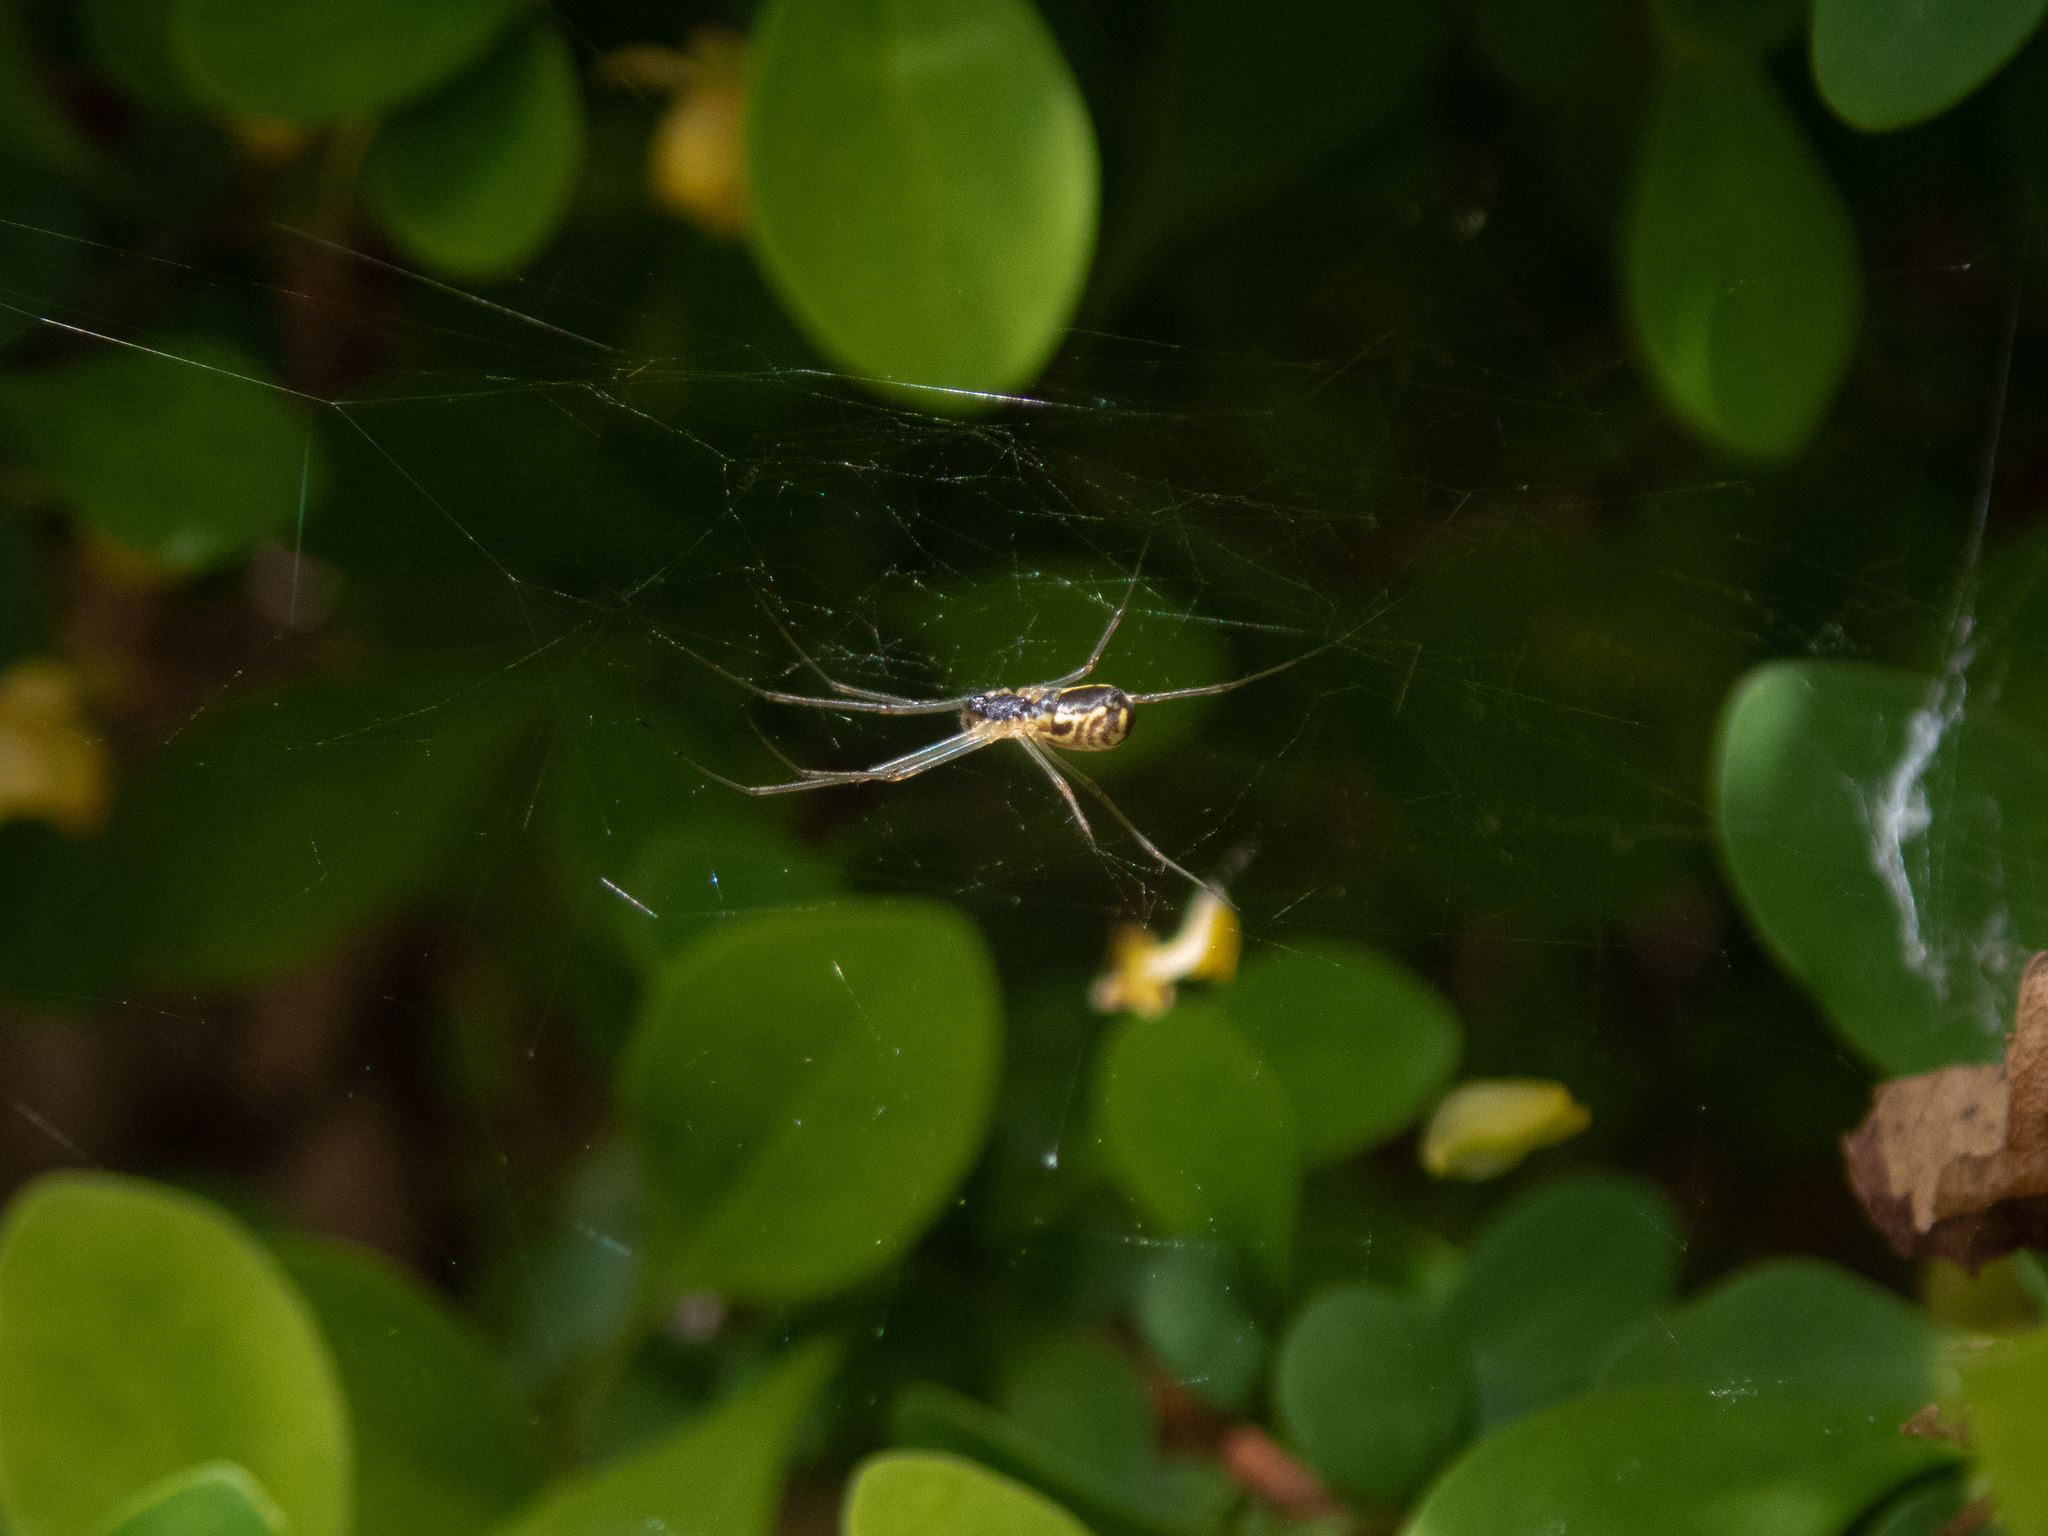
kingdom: Animalia
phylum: Arthropoda
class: Arachnida
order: Araneae
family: Linyphiidae
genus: Neriene
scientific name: Neriene radiata
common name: Filmy dome spider
